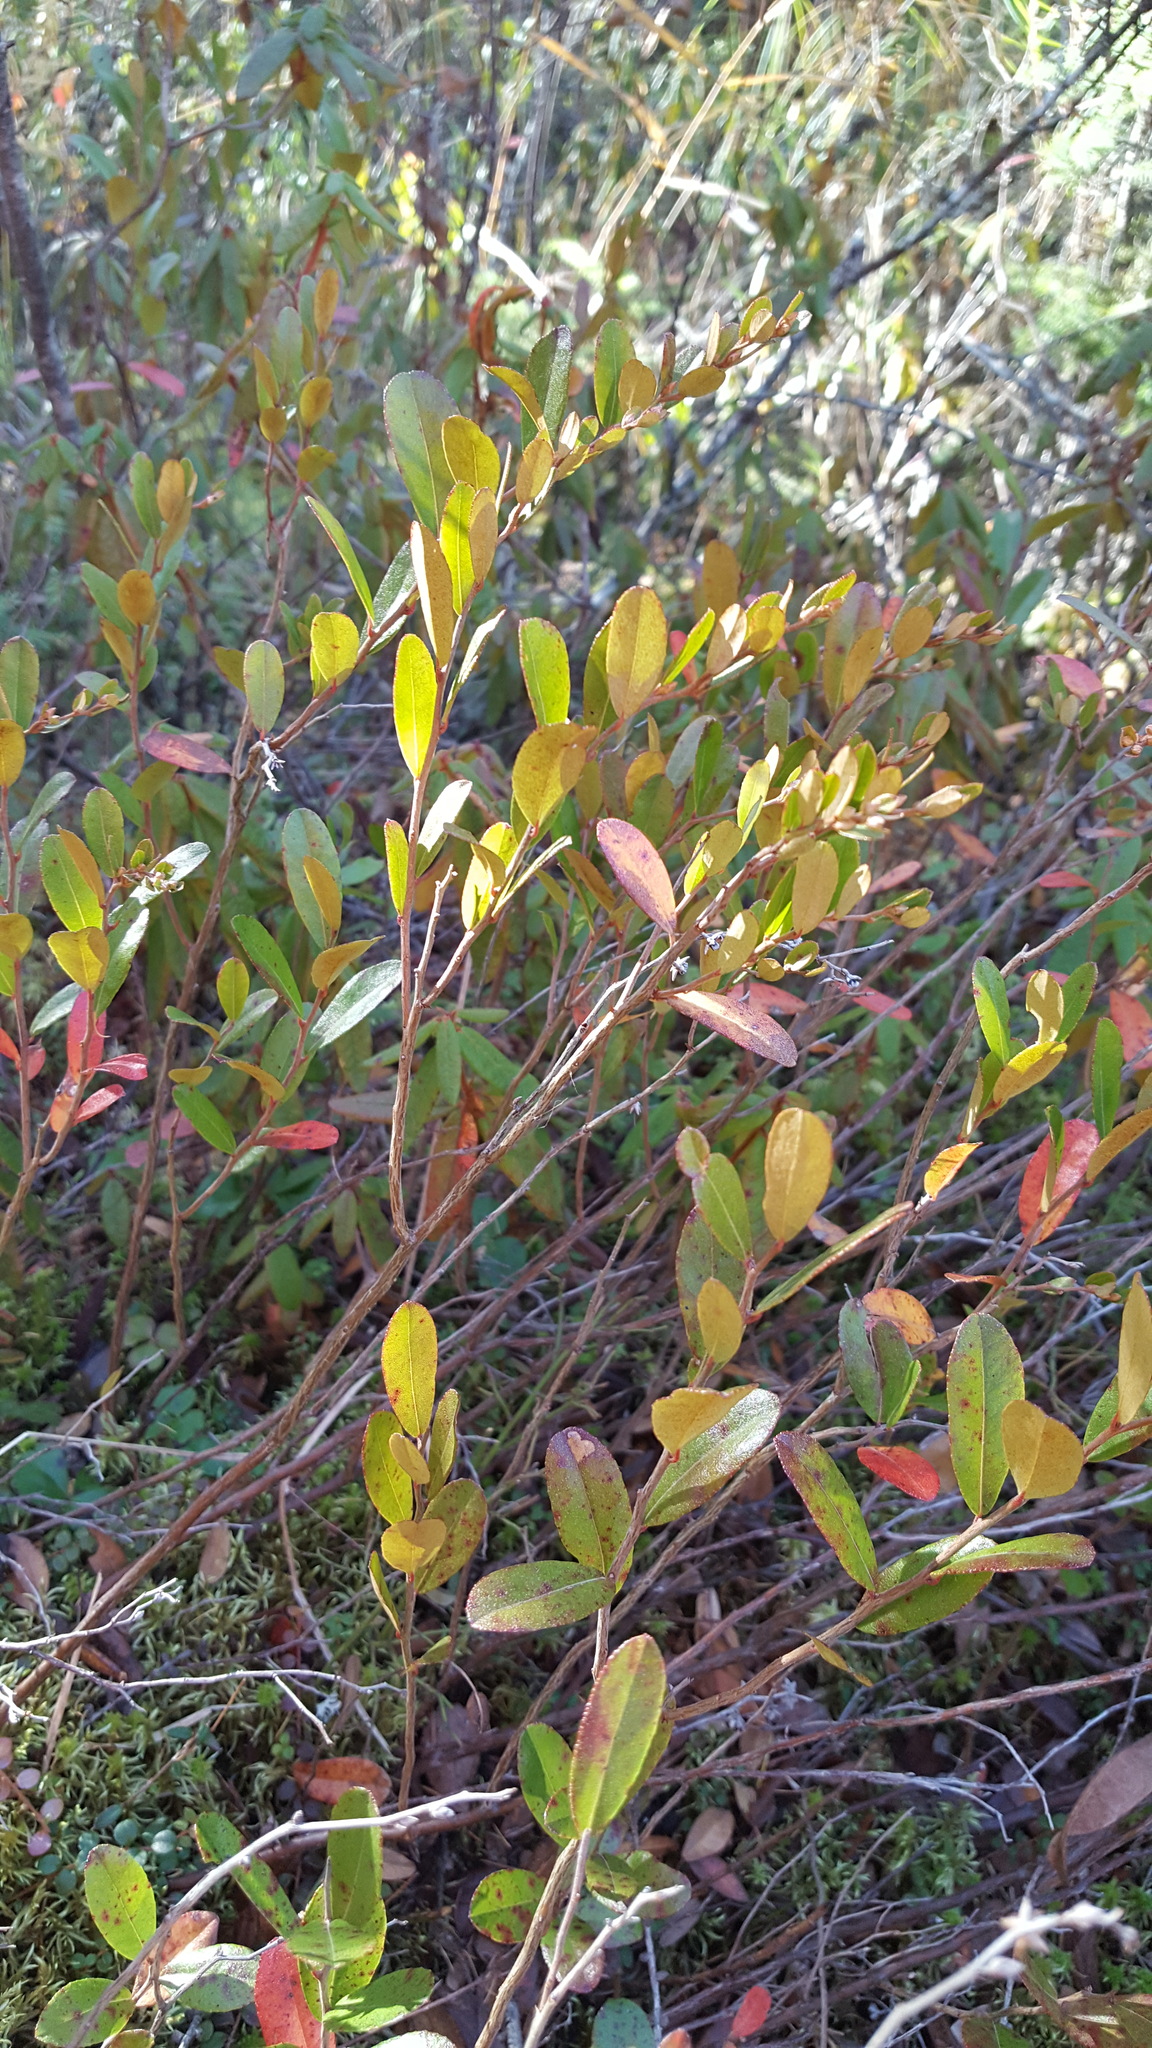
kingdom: Plantae
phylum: Tracheophyta
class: Magnoliopsida
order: Ericales
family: Ericaceae
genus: Chamaedaphne
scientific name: Chamaedaphne calyculata
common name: Leatherleaf
